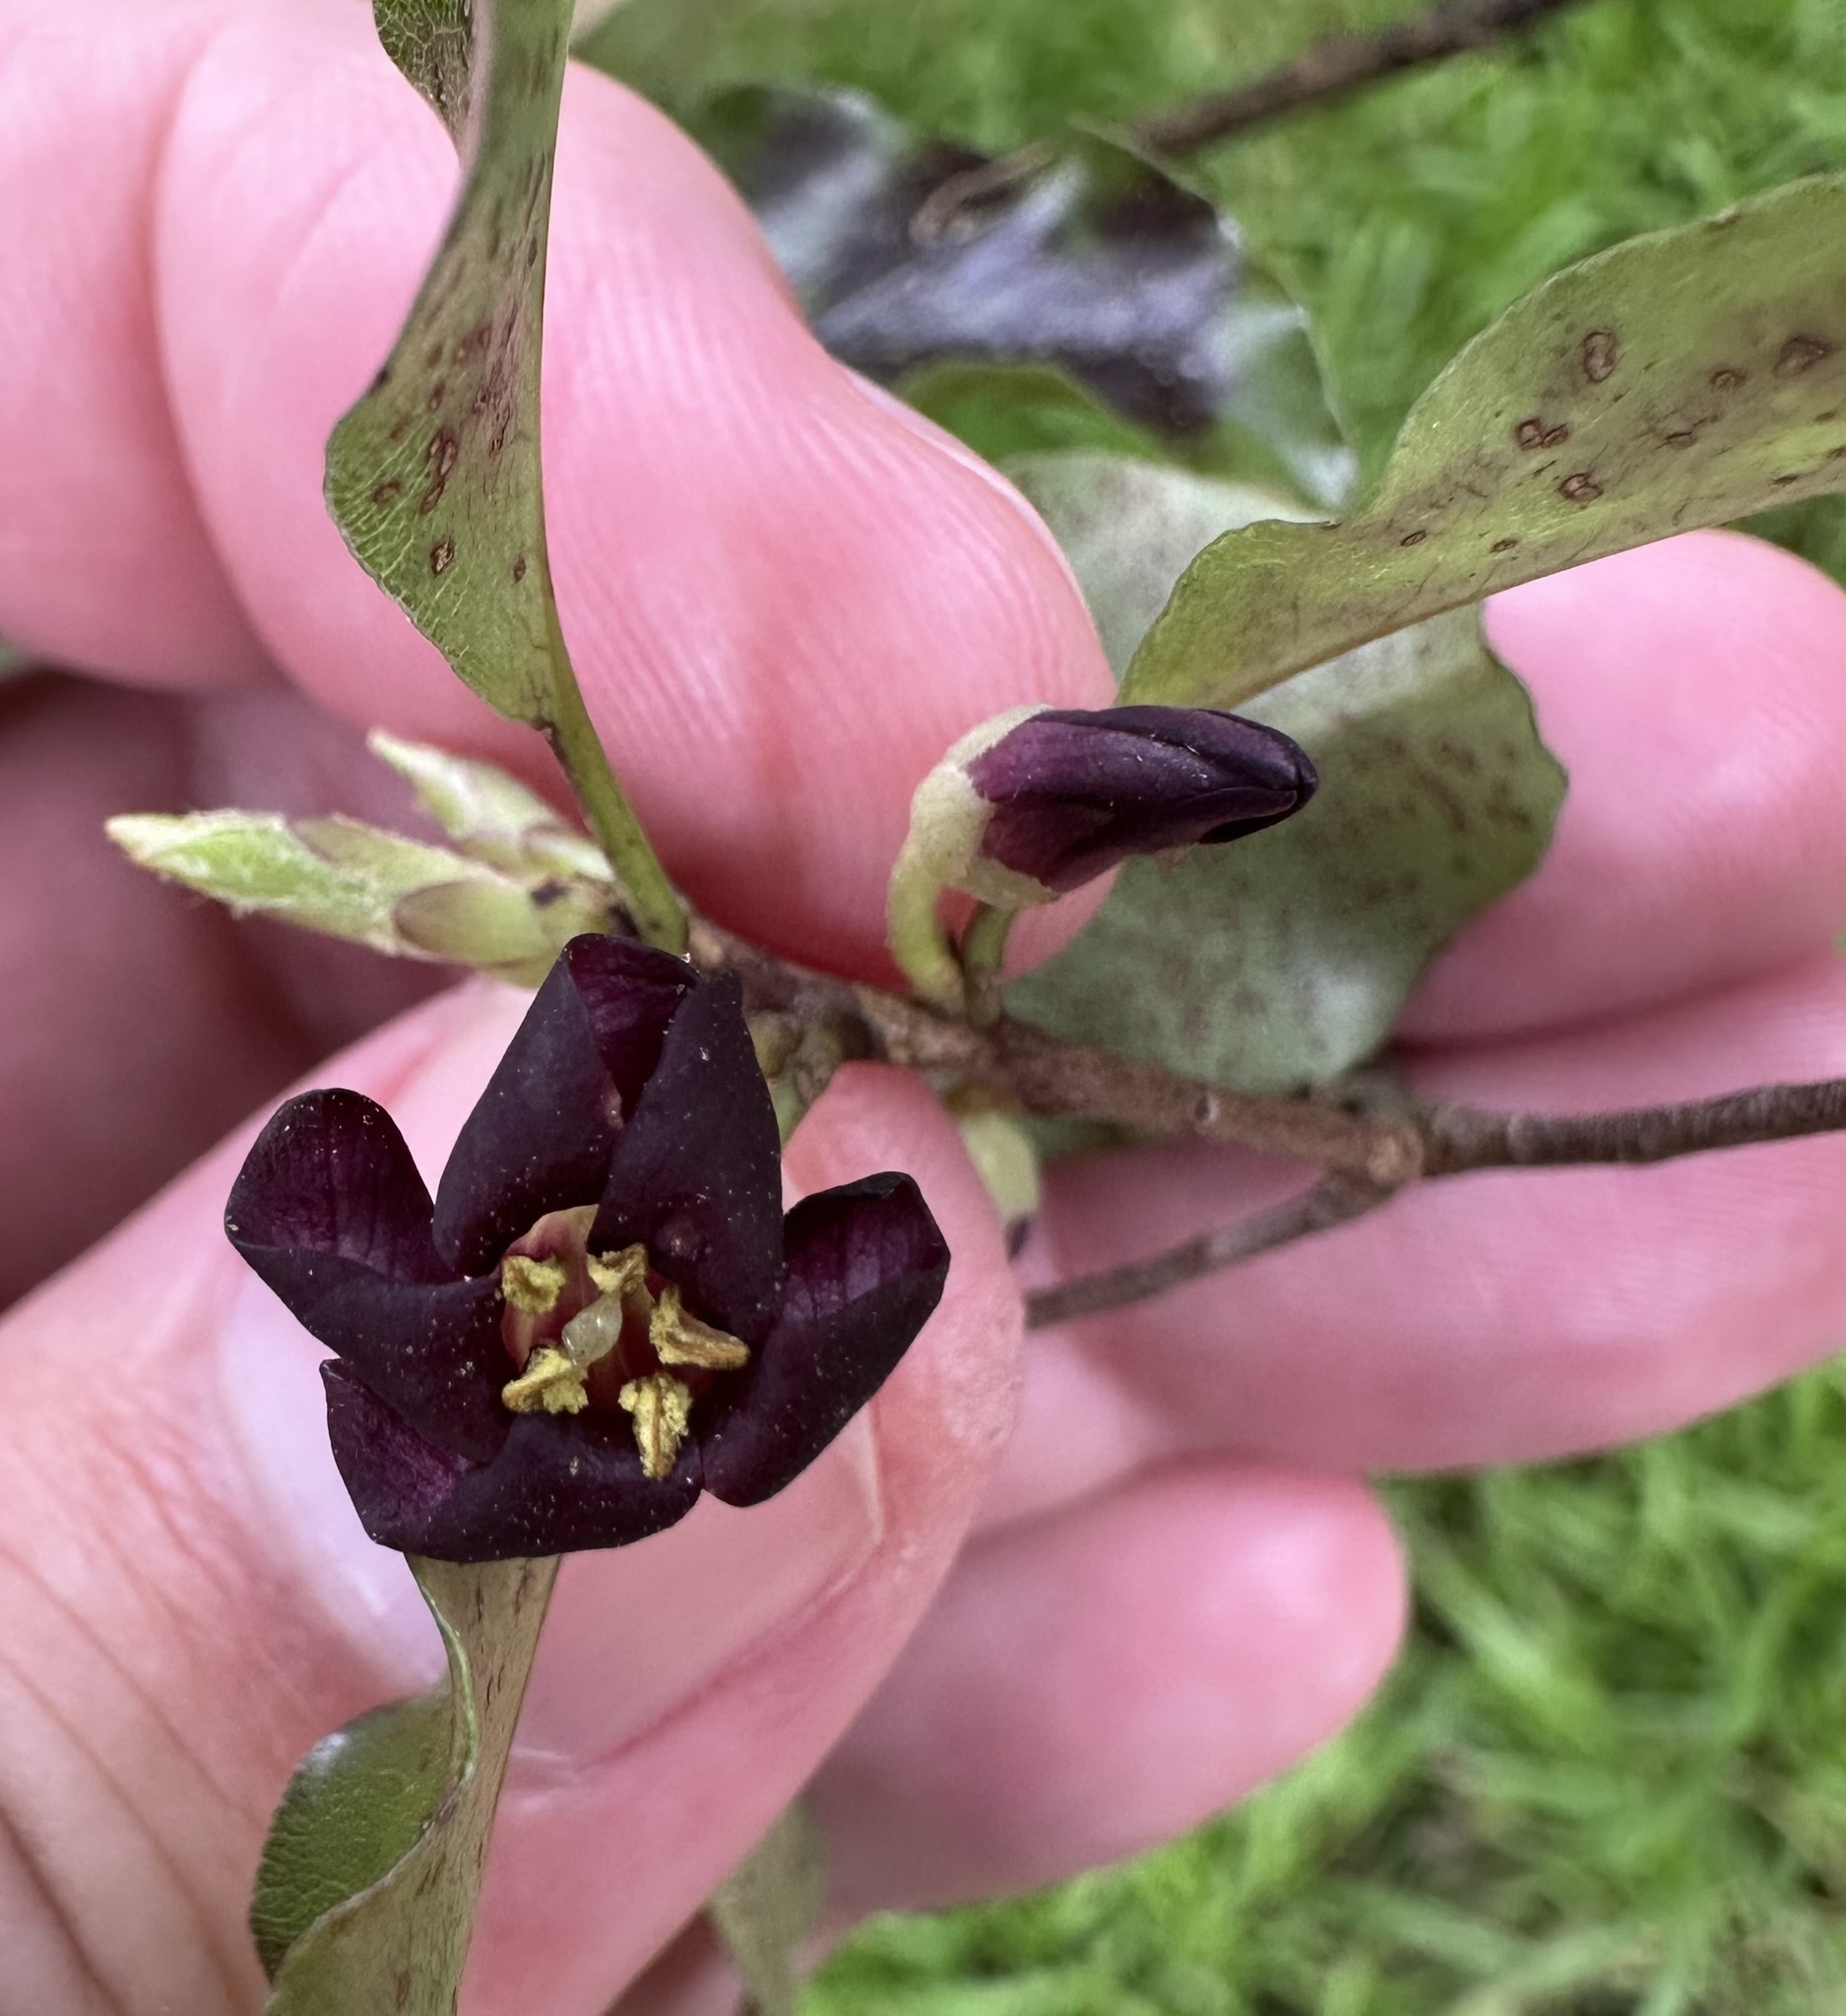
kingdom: Plantae
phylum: Tracheophyta
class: Magnoliopsida
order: Apiales
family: Pittosporaceae
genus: Pittosporum
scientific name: Pittosporum tenuifolium
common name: Kohuhu
